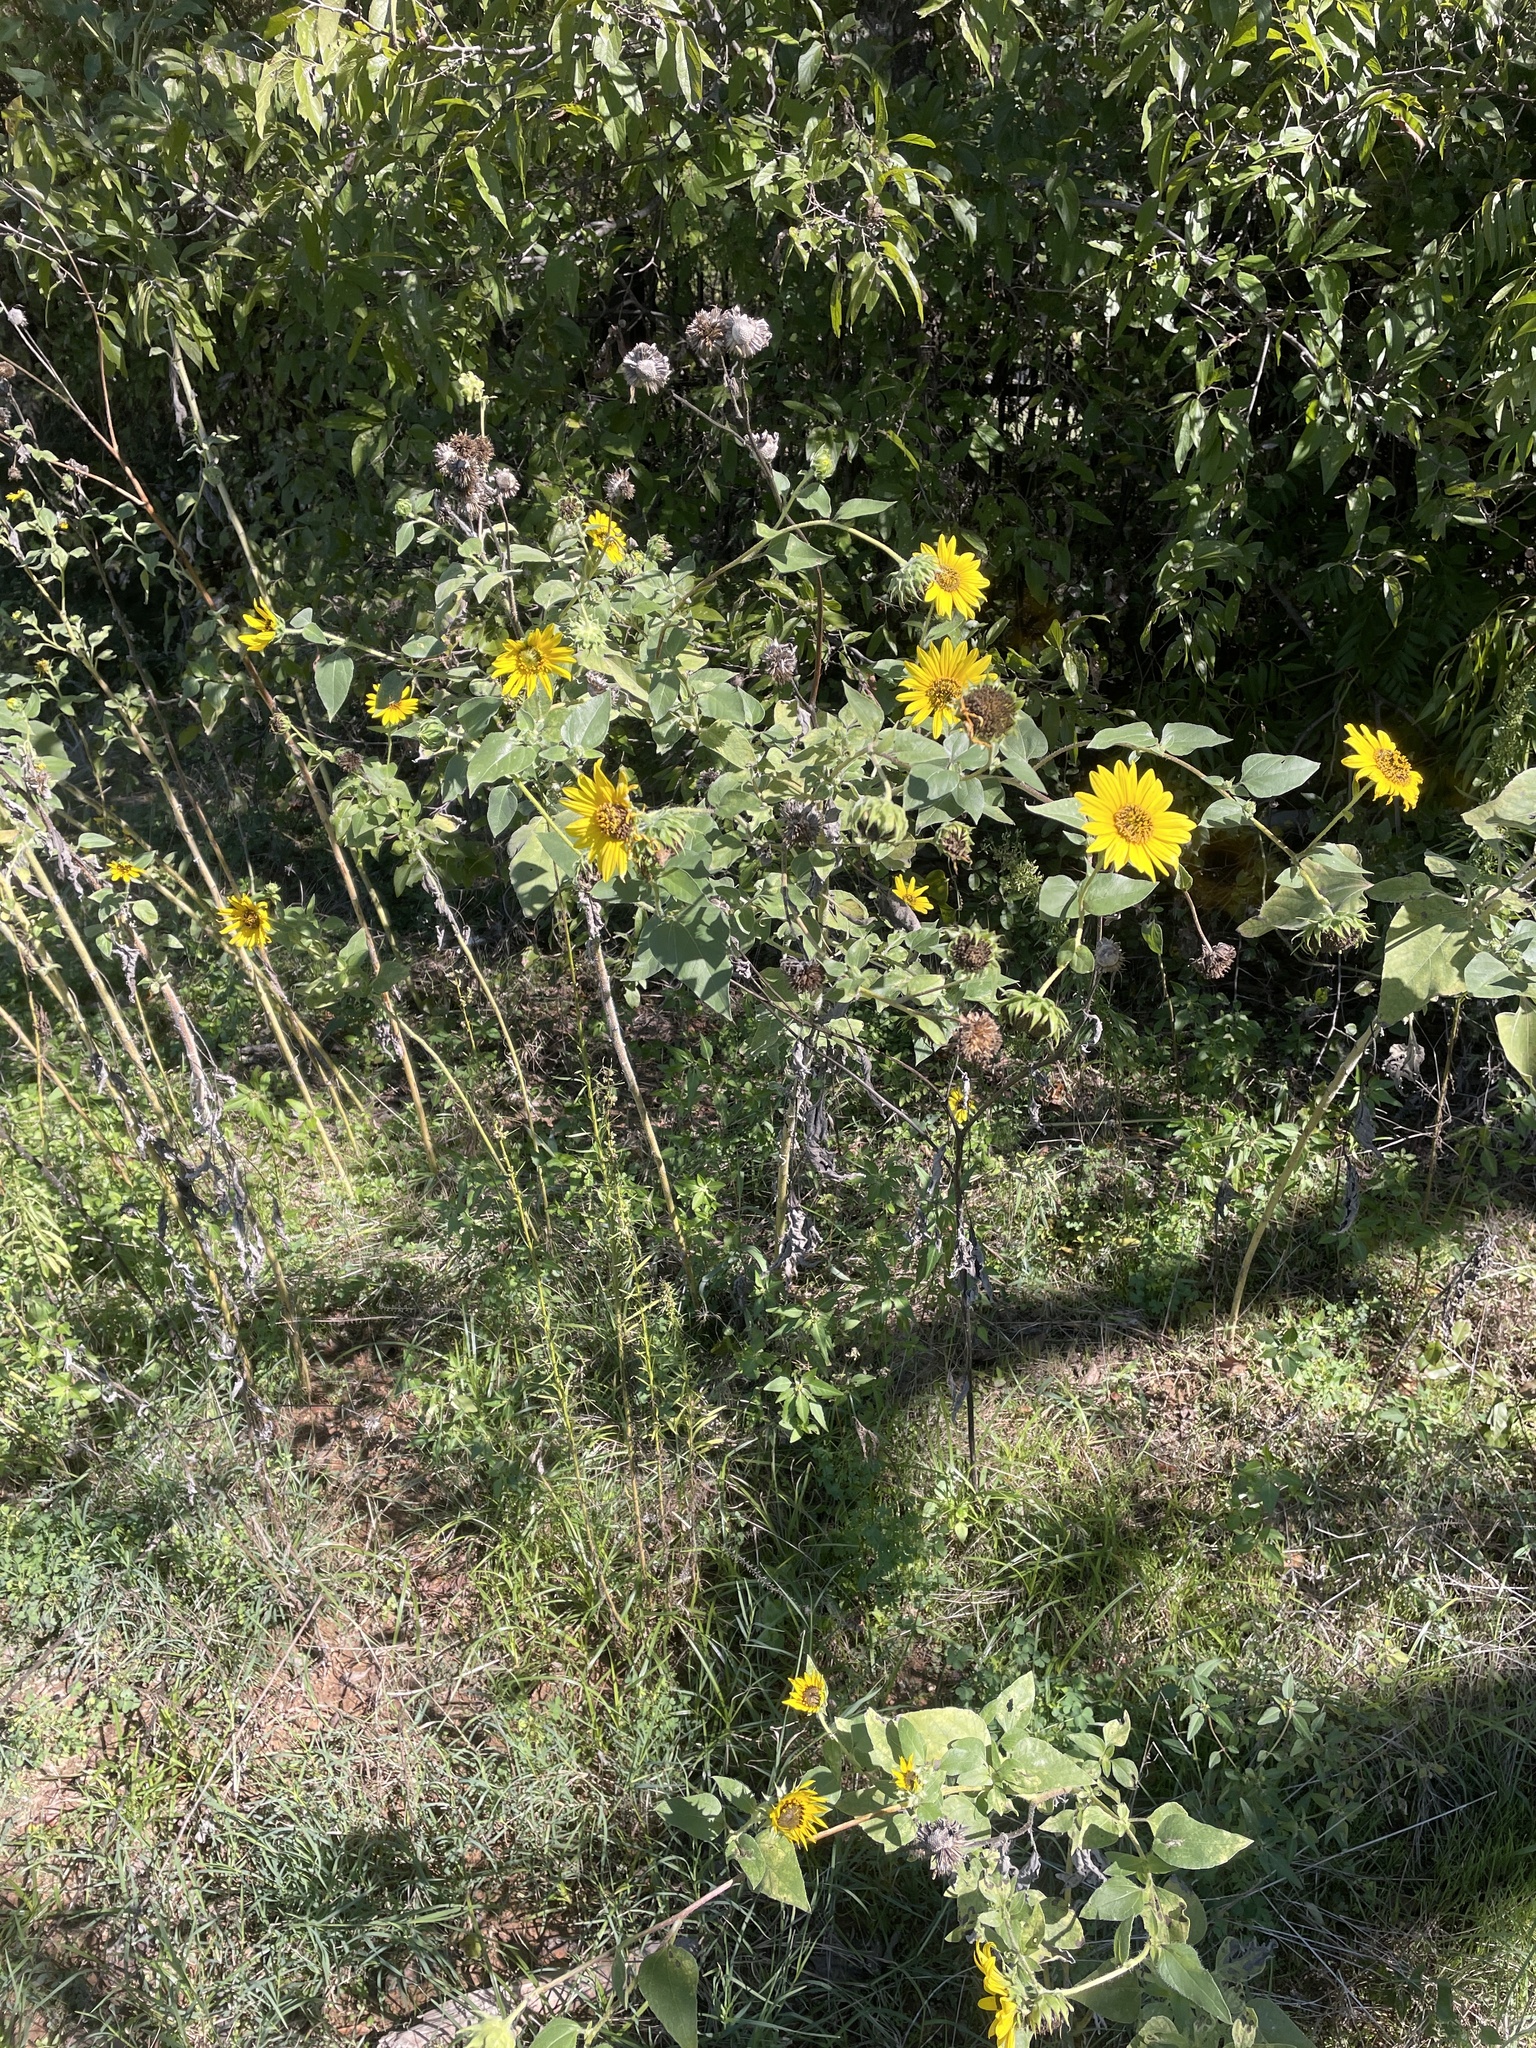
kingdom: Plantae
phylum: Tracheophyta
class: Magnoliopsida
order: Asterales
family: Asteraceae
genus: Helianthus
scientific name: Helianthus annuus
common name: Sunflower
